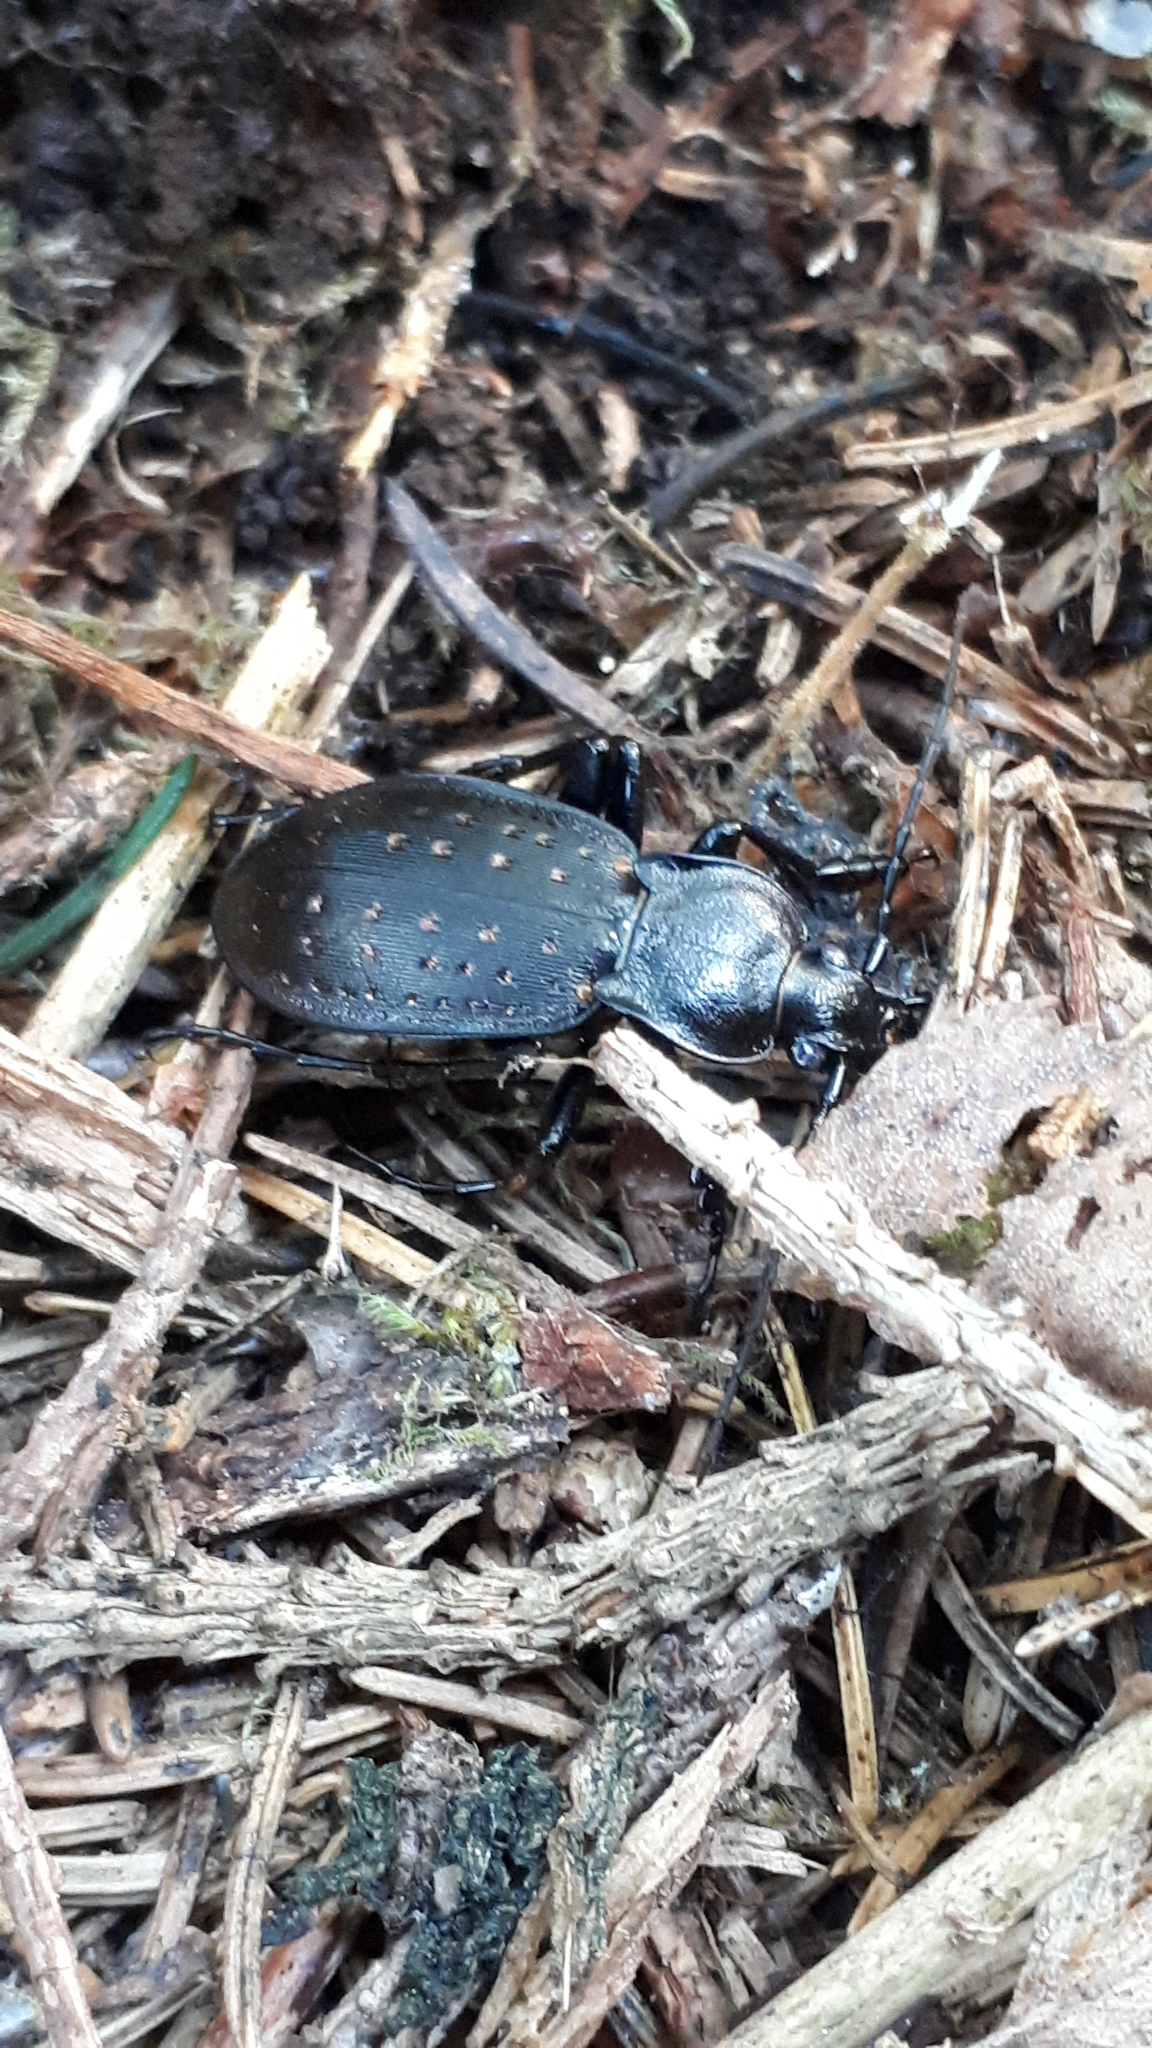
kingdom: Animalia
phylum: Arthropoda
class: Insecta
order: Coleoptera
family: Carabidae
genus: Carabus
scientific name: Carabus hortensis
